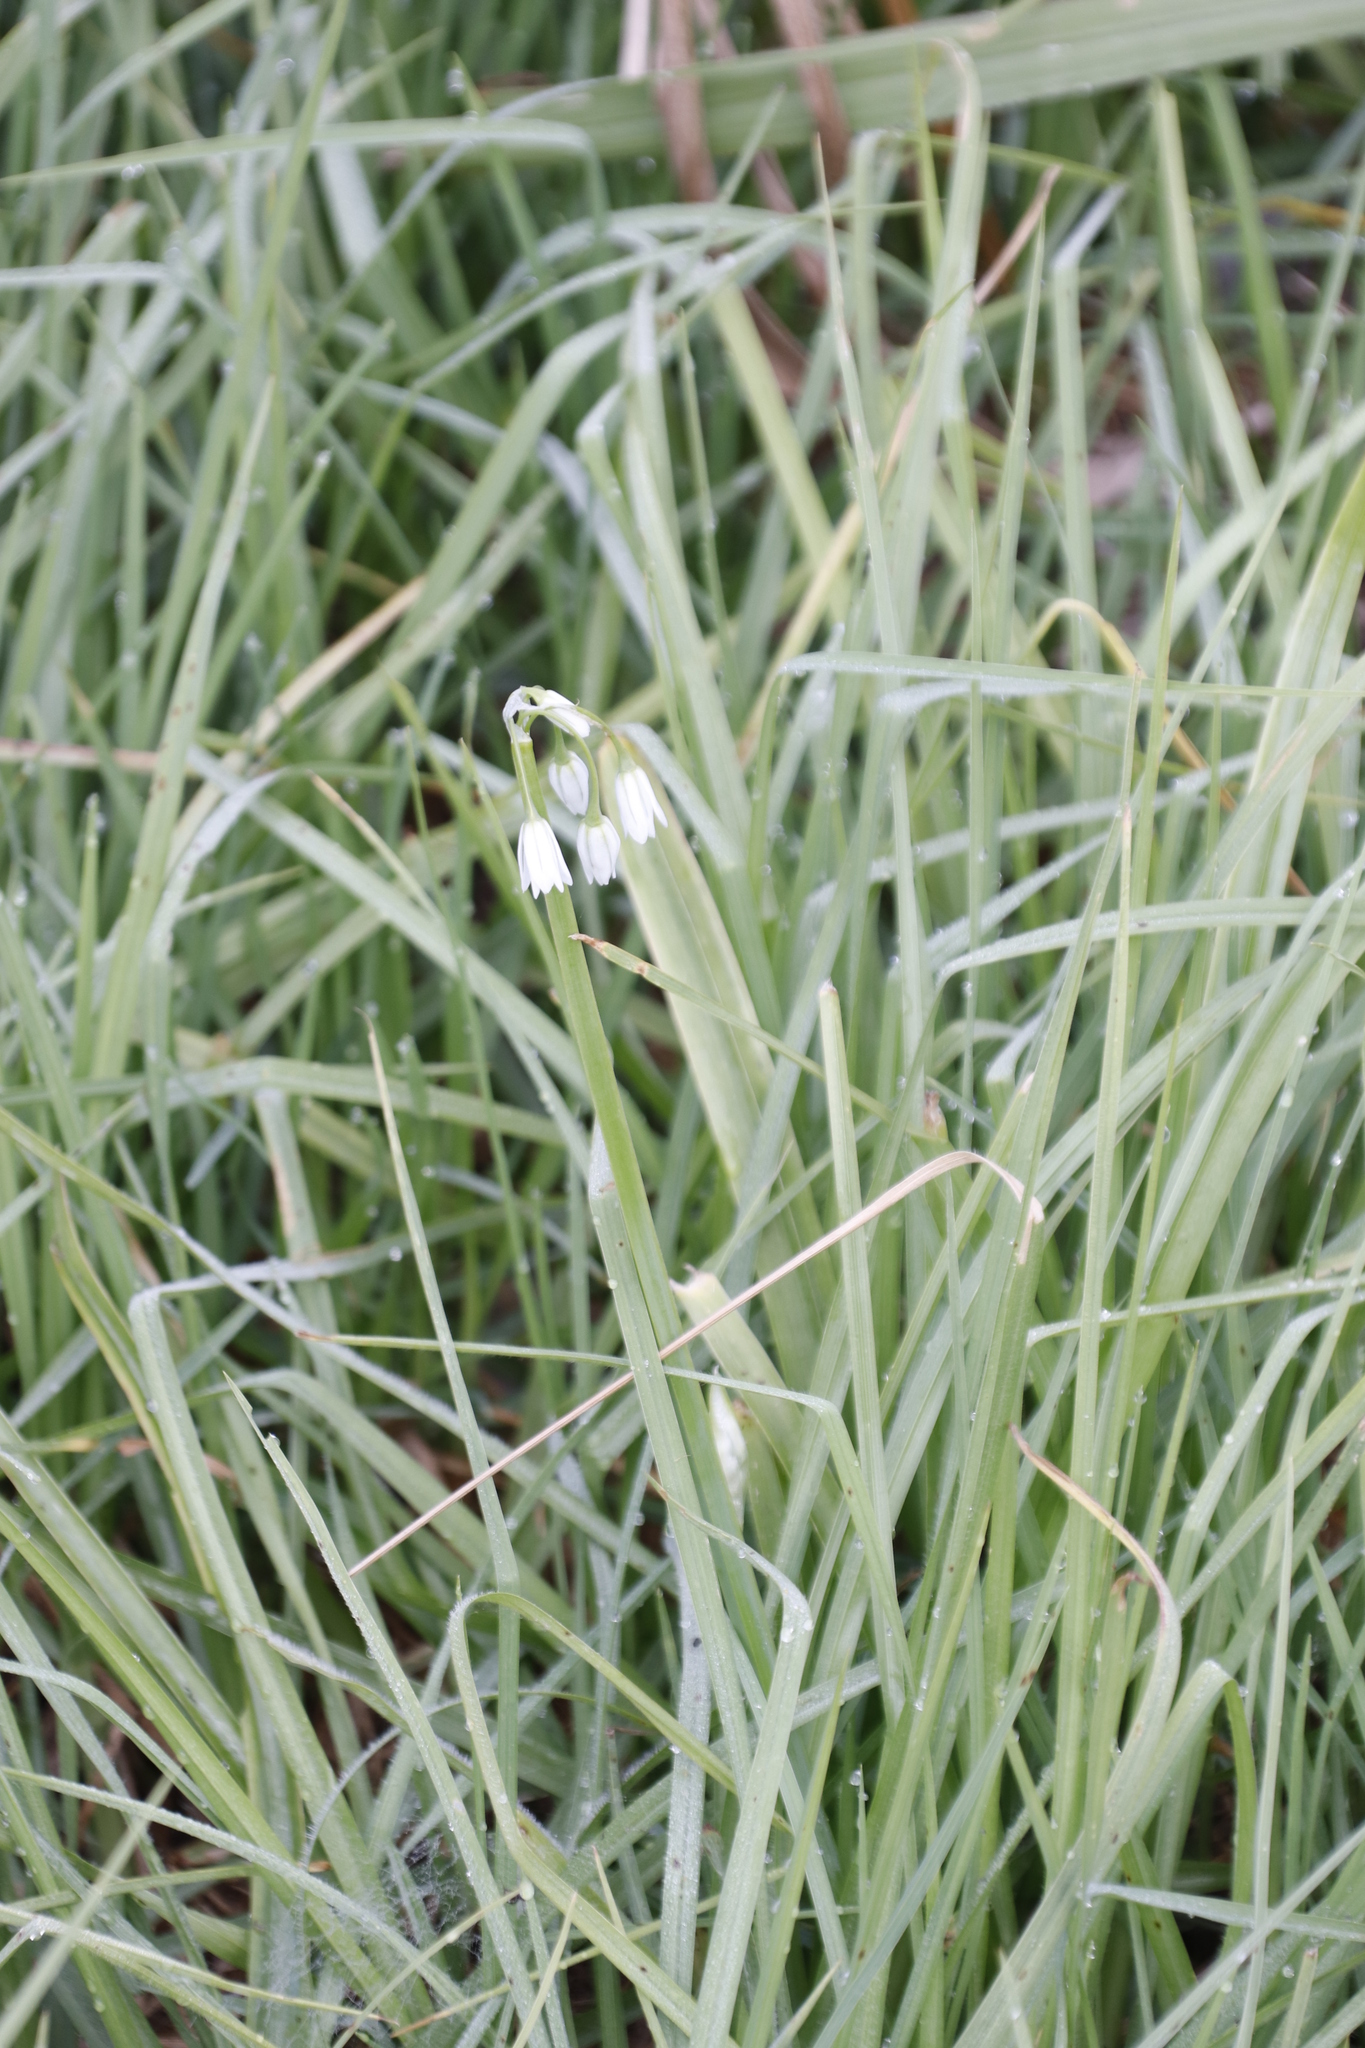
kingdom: Plantae
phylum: Tracheophyta
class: Liliopsida
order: Asparagales
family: Amaryllidaceae
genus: Allium
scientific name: Allium triquetrum
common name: Three-cornered garlic
